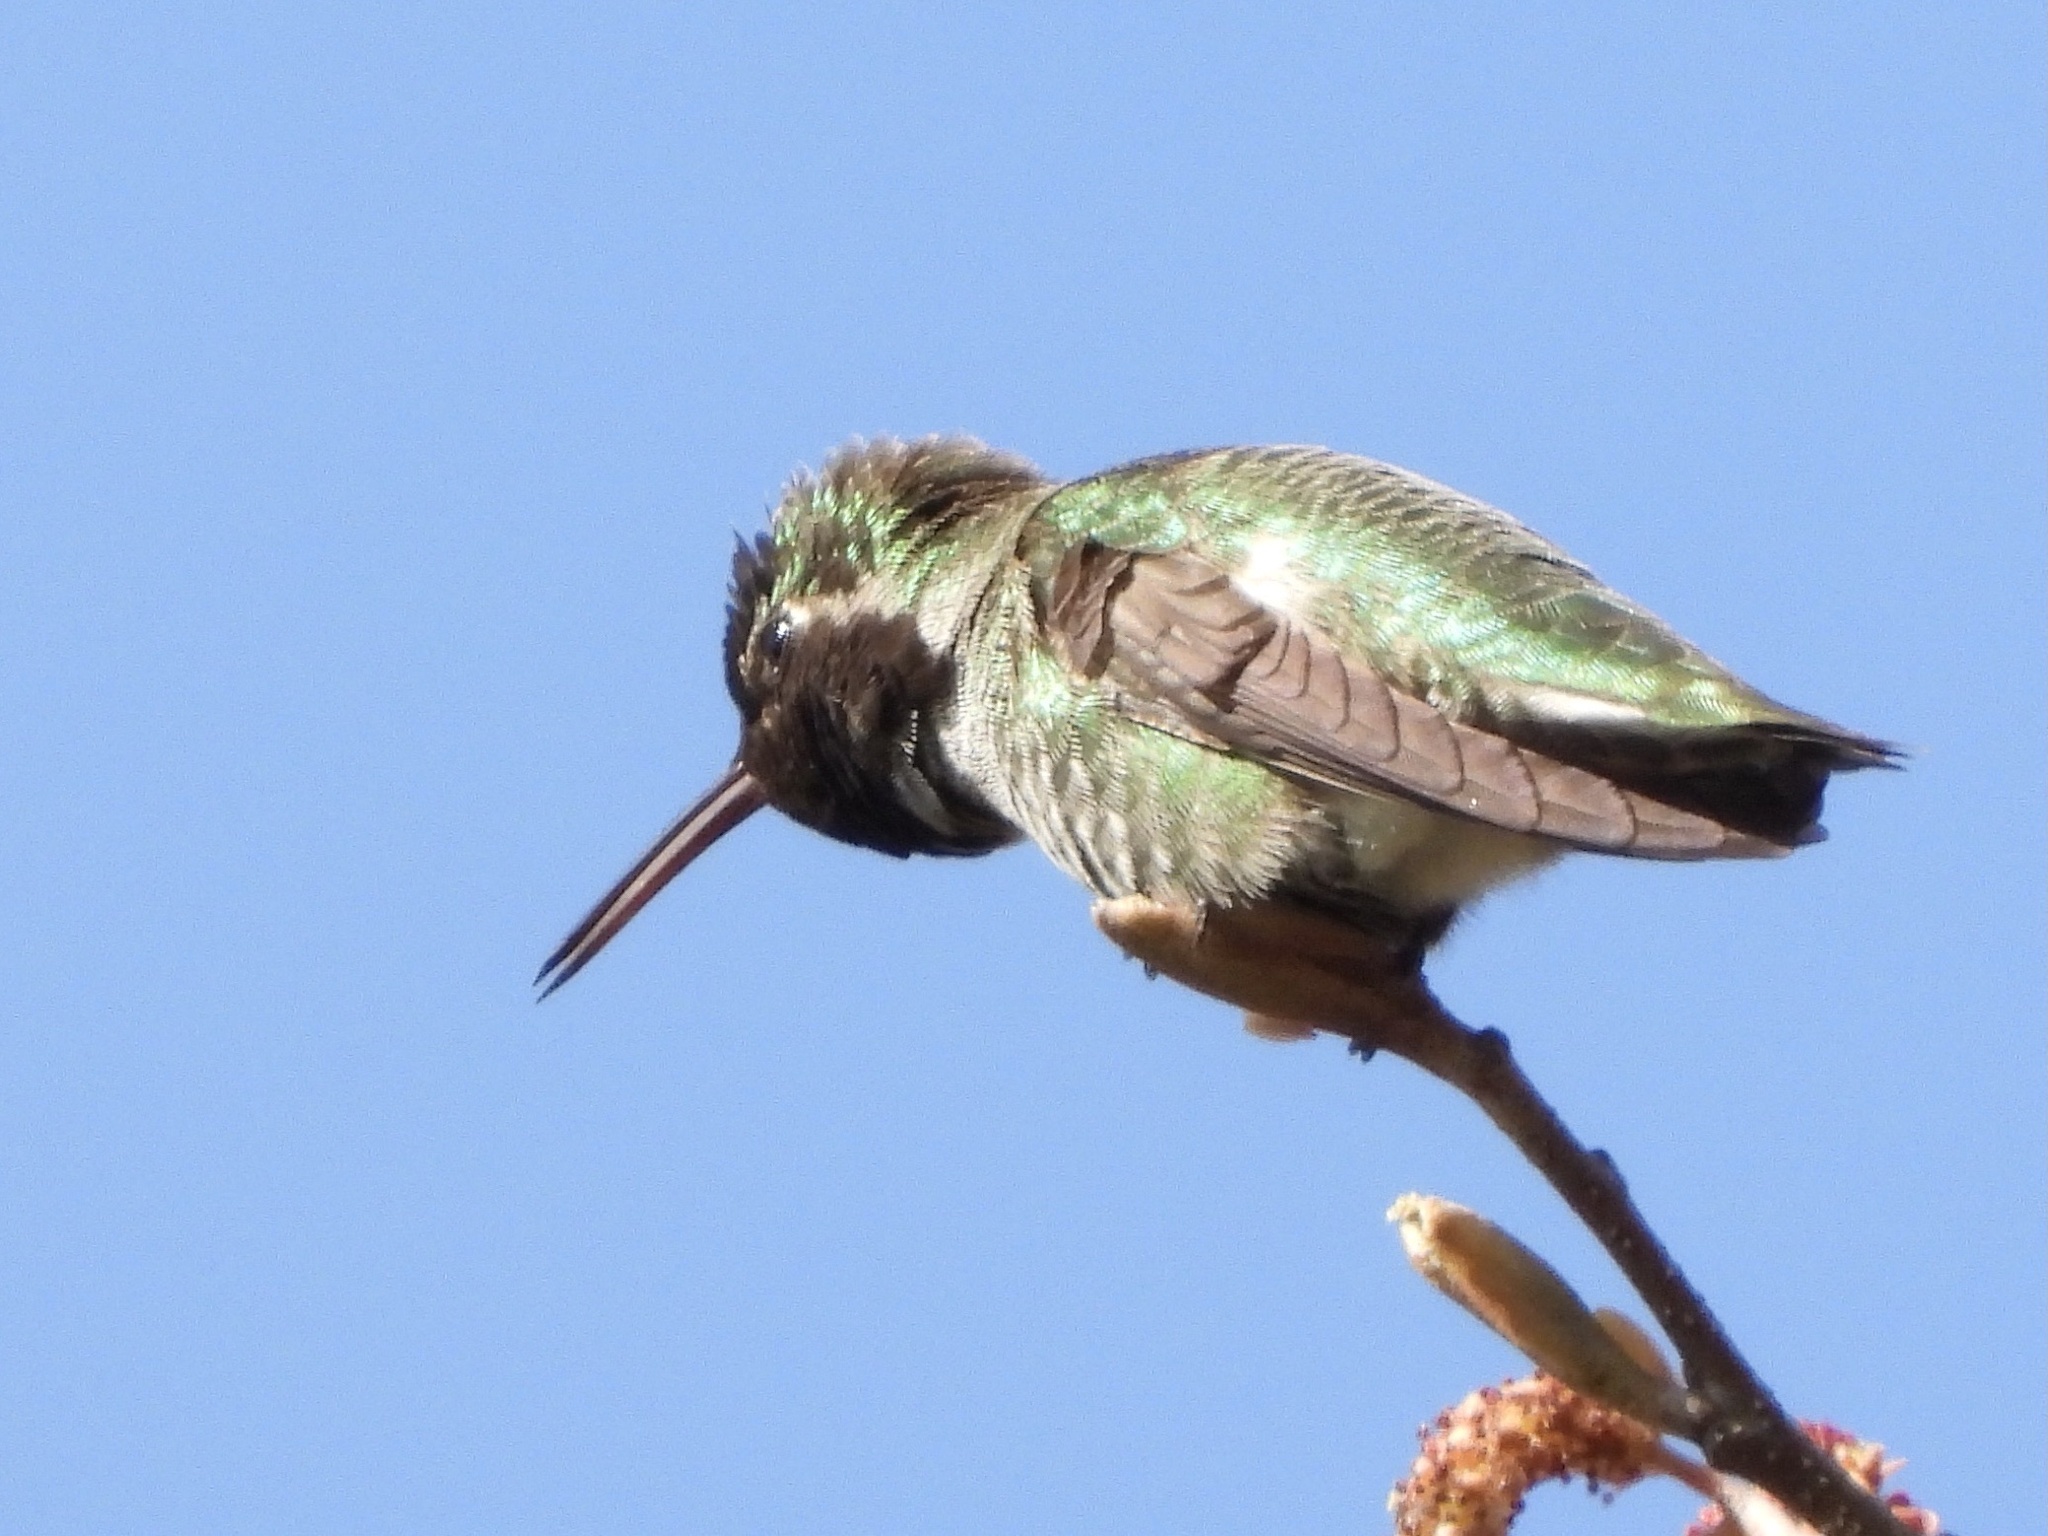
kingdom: Animalia
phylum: Chordata
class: Aves
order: Apodiformes
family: Trochilidae
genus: Calypte
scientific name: Calypte anna
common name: Anna's hummingbird
